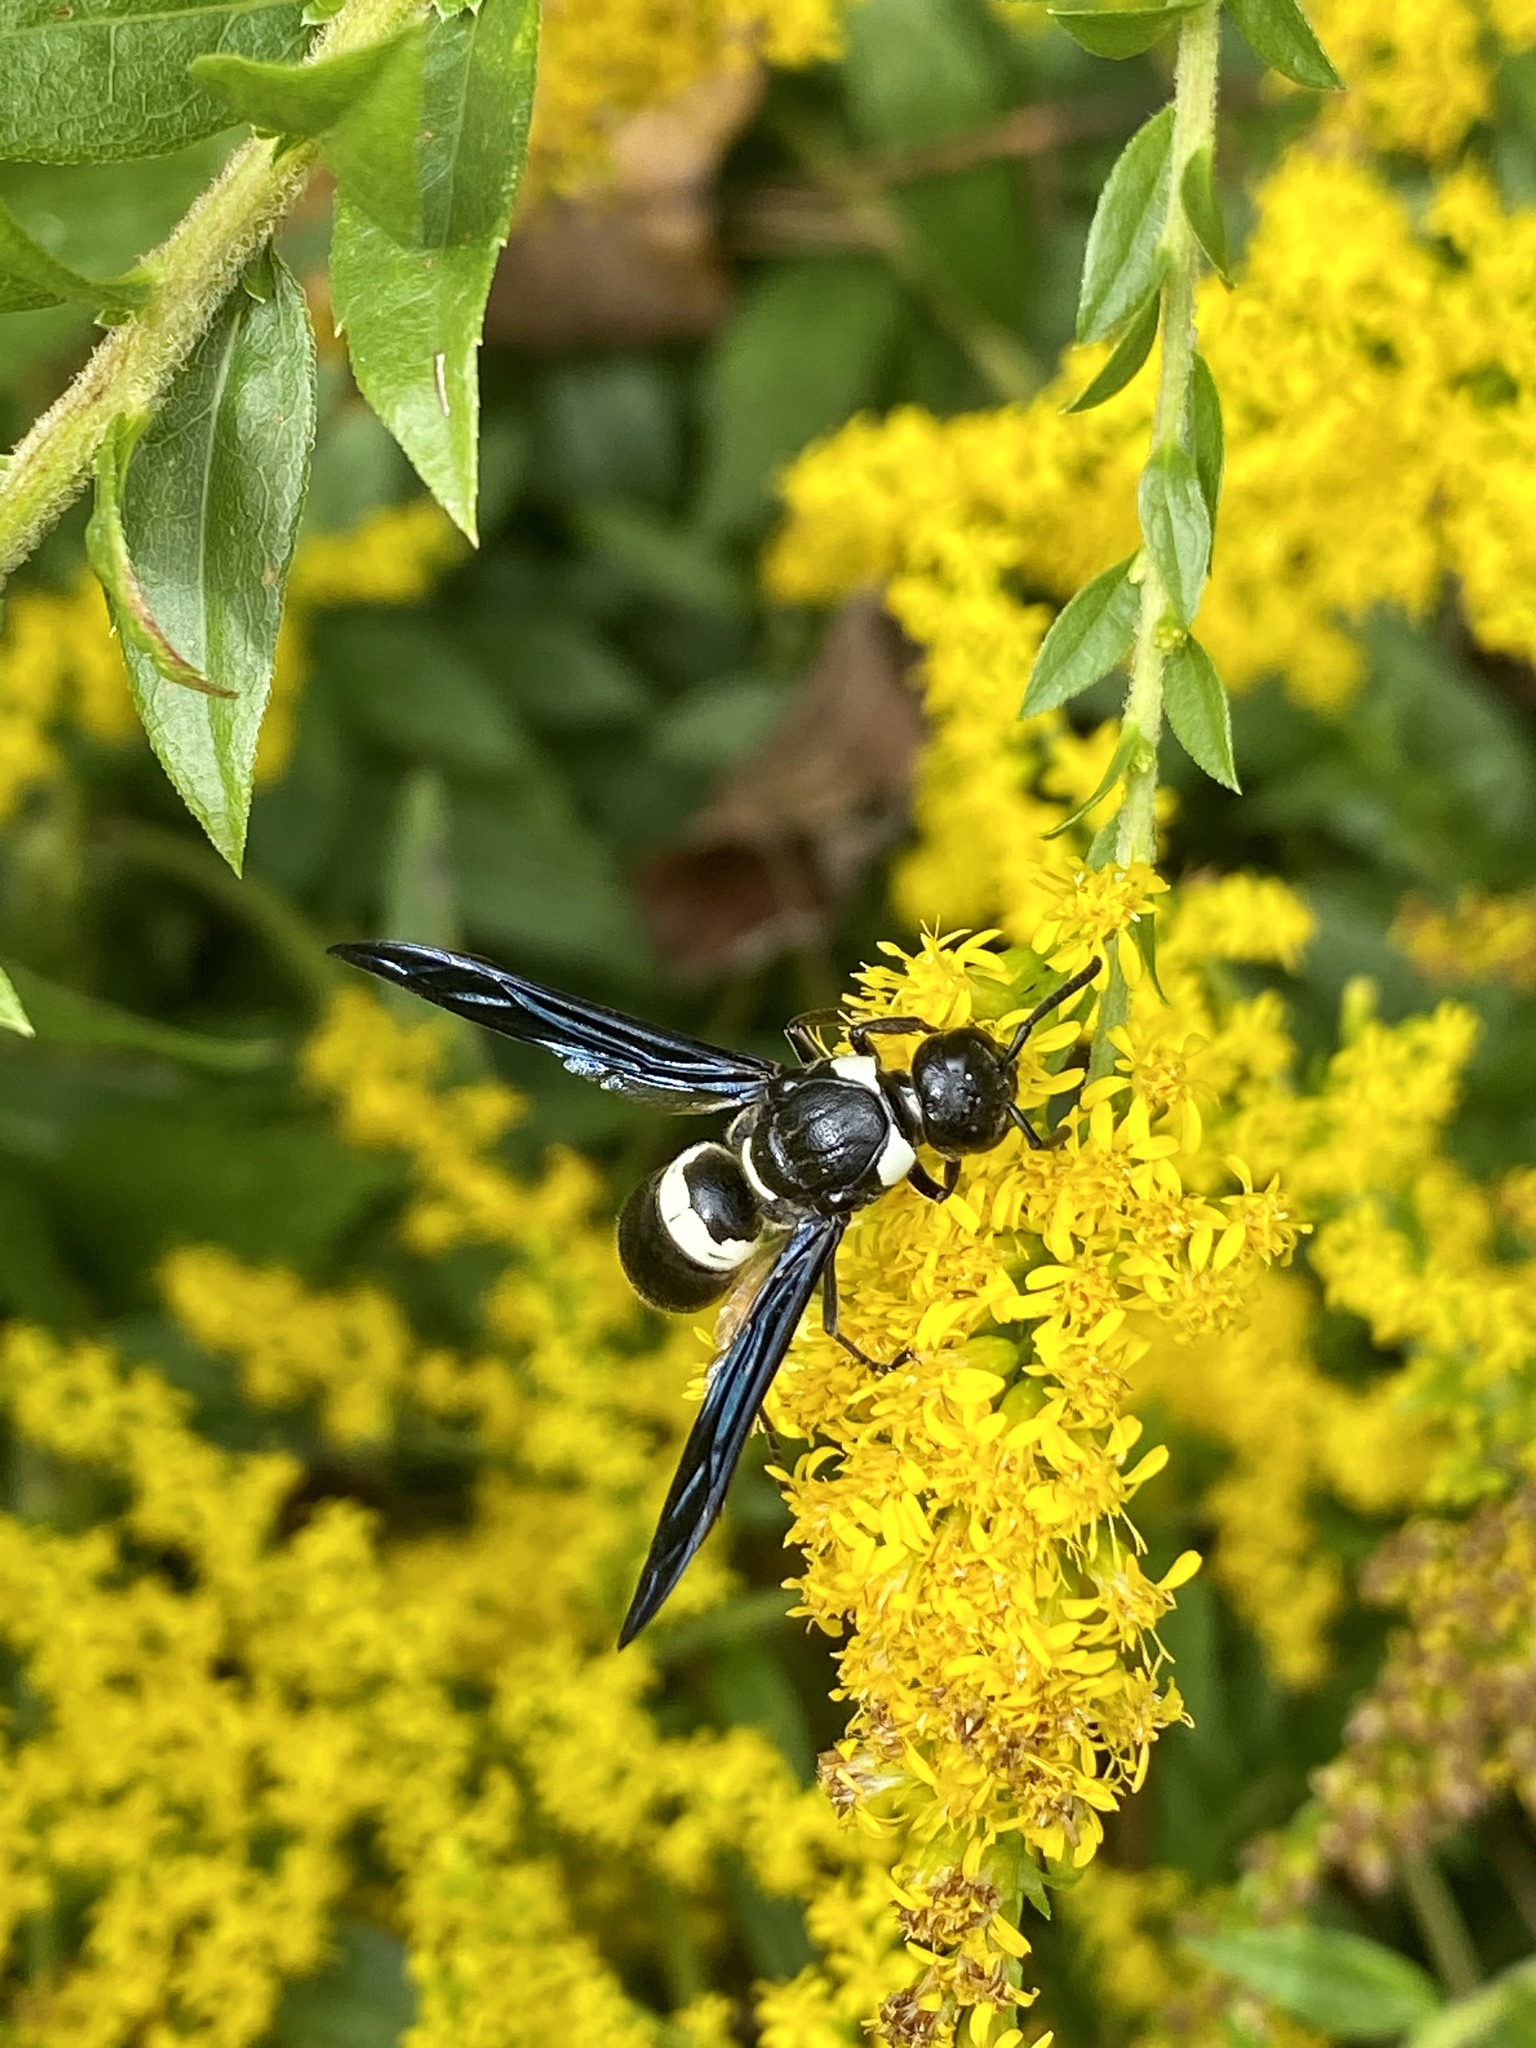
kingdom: Animalia
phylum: Arthropoda
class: Insecta
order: Hymenoptera
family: Eumenidae
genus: Monobia
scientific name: Monobia quadridens
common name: Four-toothed mason wasp
